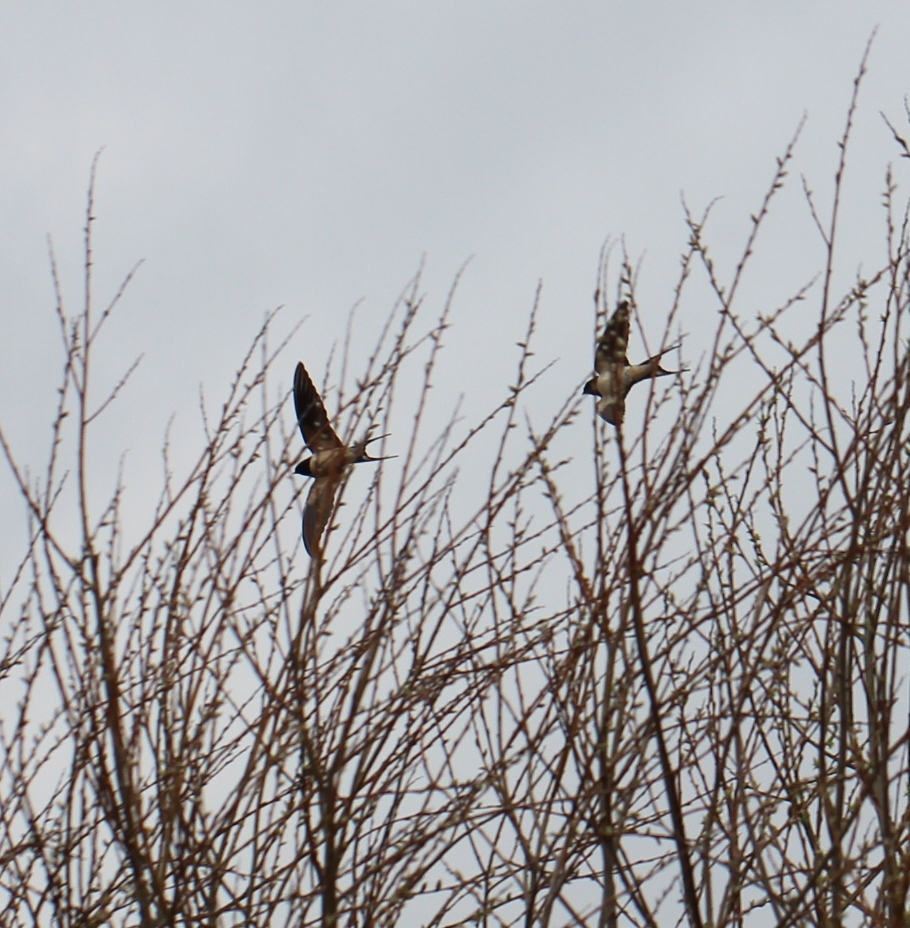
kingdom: Animalia
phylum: Chordata
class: Aves
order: Passeriformes
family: Hirundinidae
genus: Hirundo
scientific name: Hirundo rustica
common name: Barn swallow
